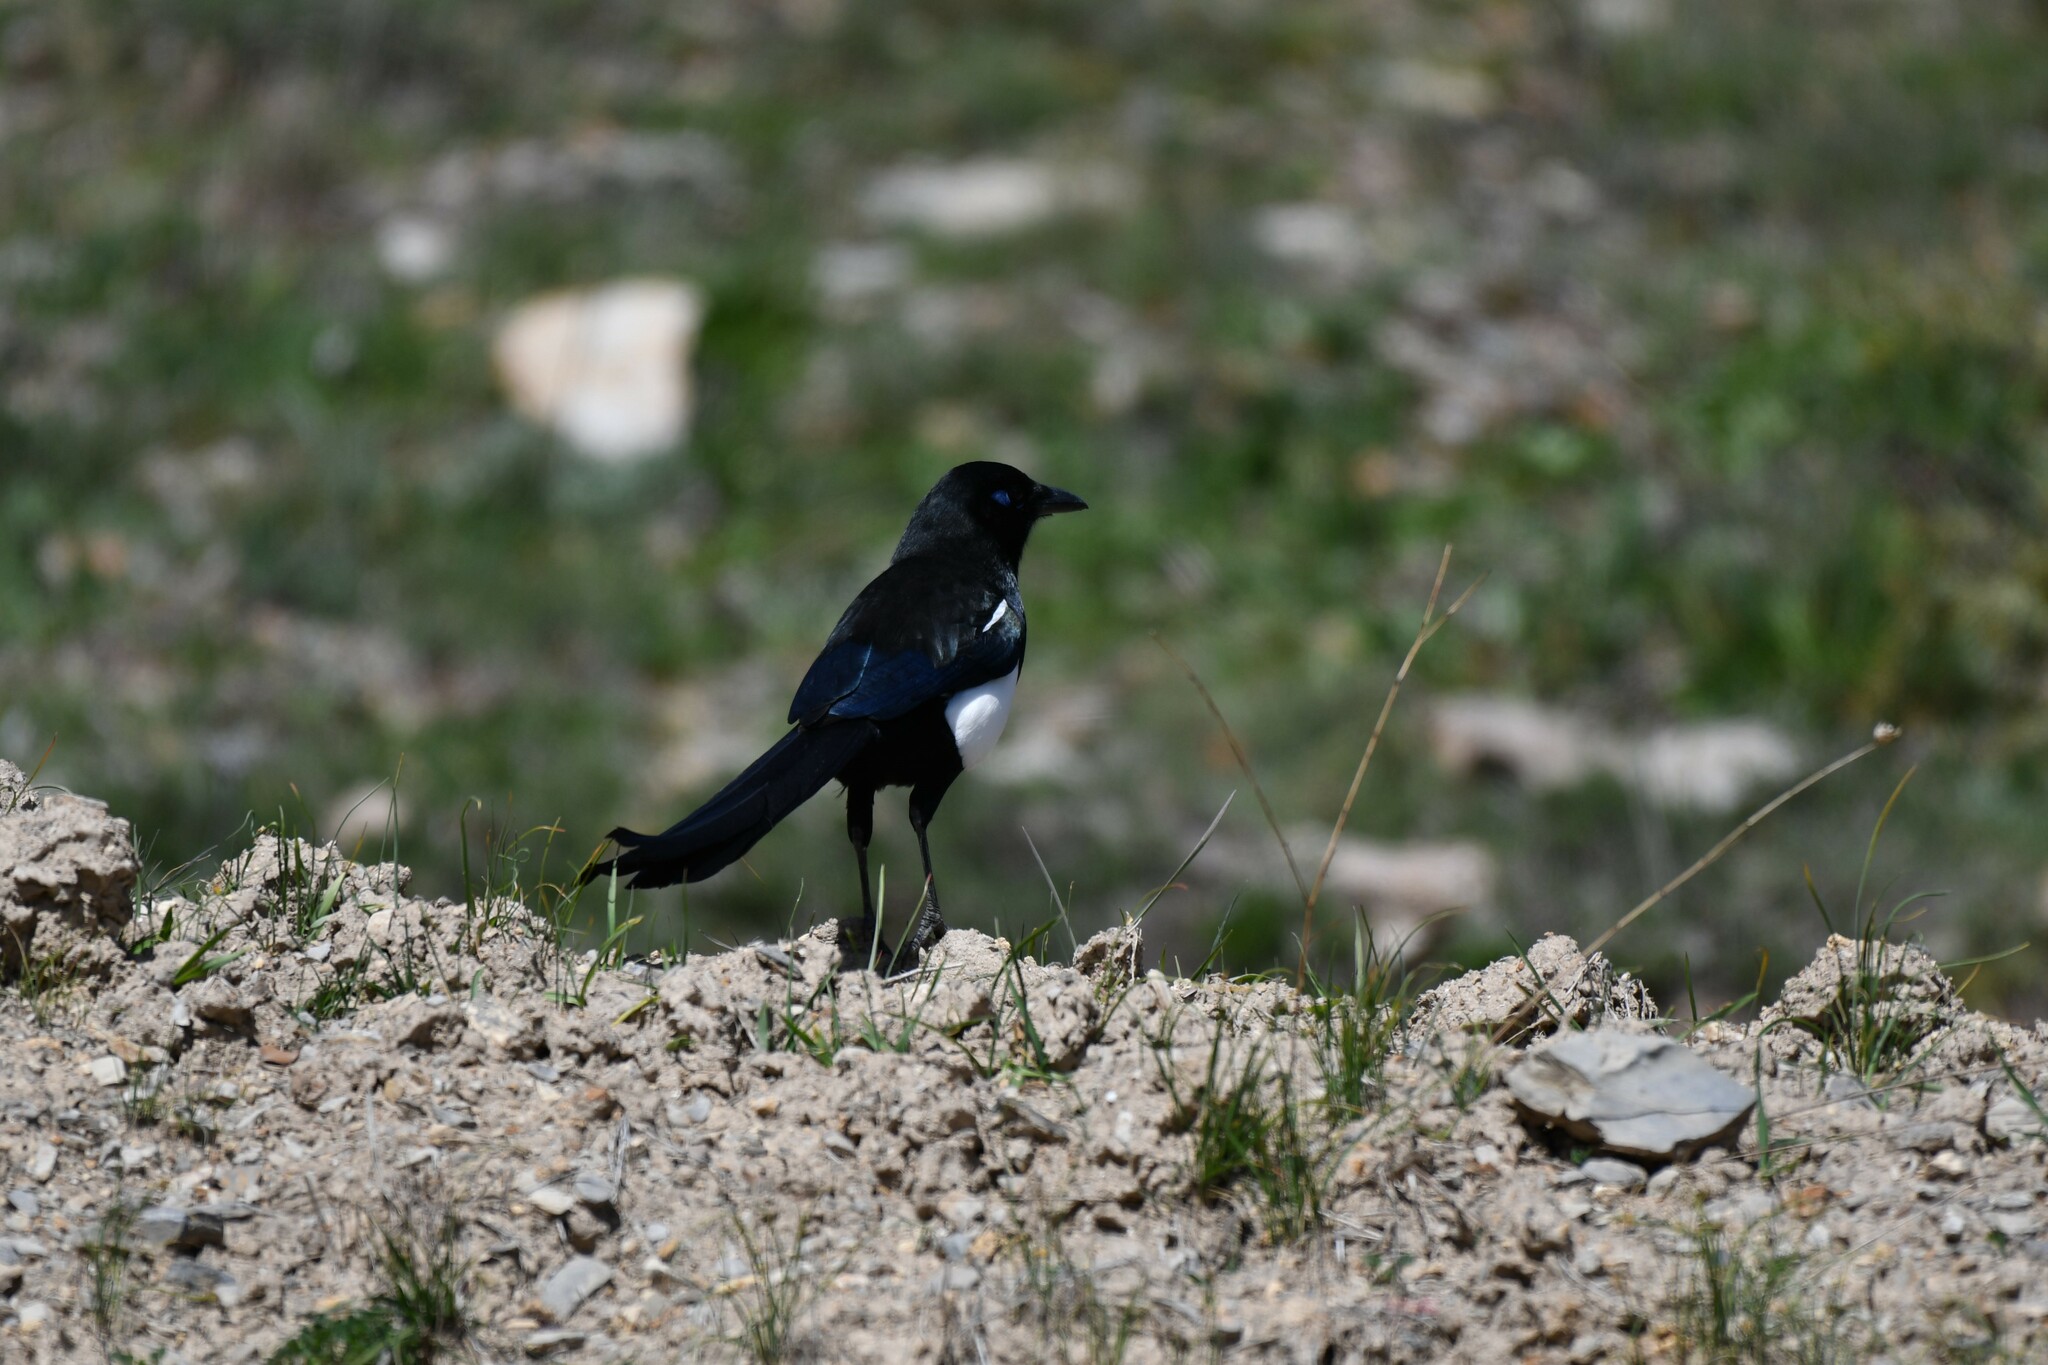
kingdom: Animalia
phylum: Chordata
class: Aves
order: Passeriformes
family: Corvidae
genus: Pica
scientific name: Pica mauritanica
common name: Maghreb magpie
